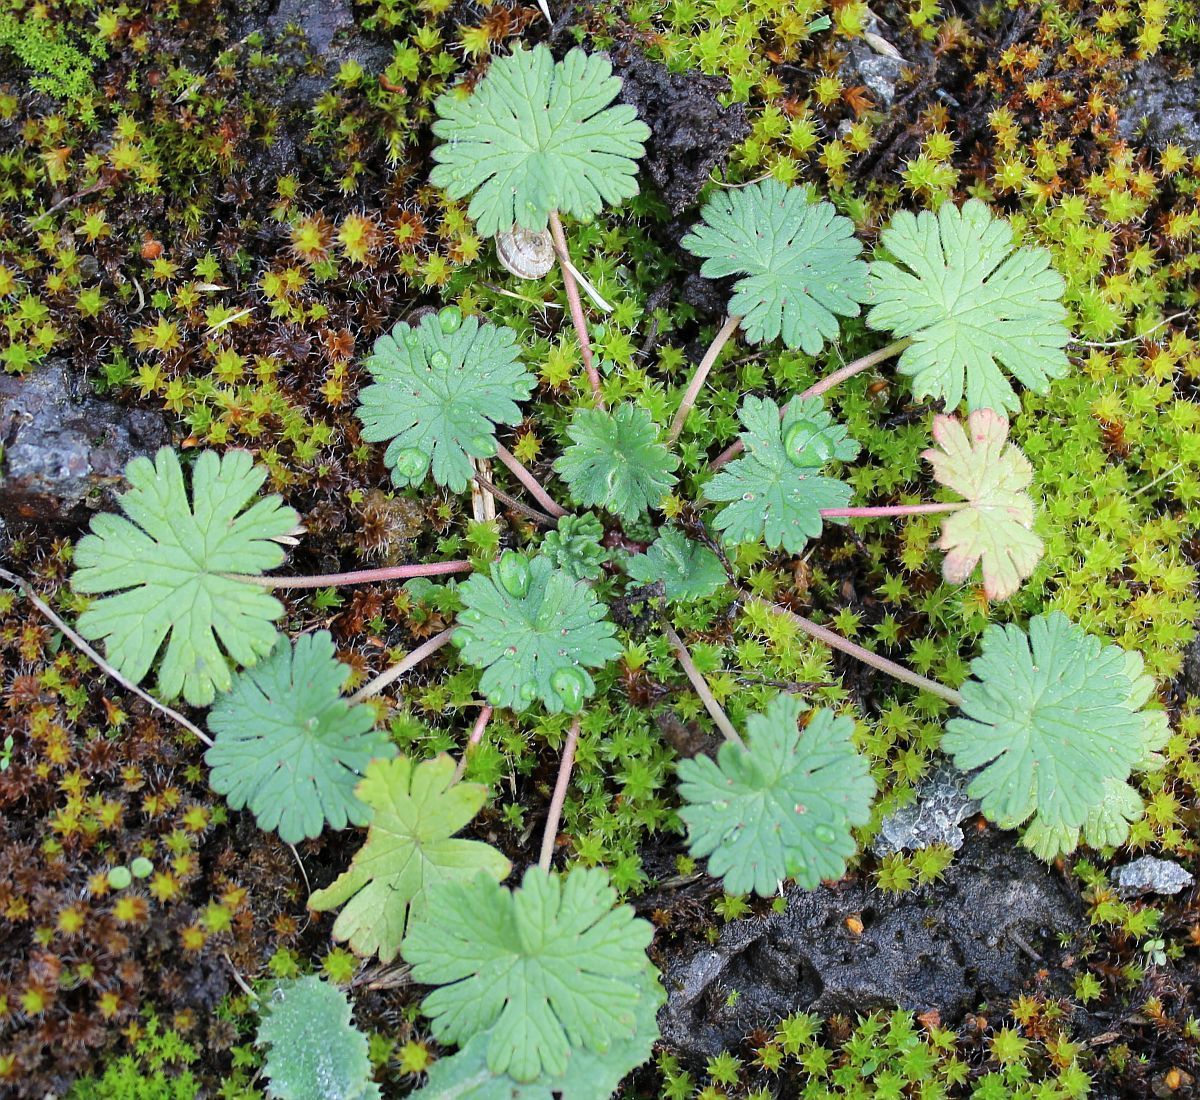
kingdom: Plantae
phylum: Tracheophyta
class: Magnoliopsida
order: Geraniales
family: Geraniaceae
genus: Geranium
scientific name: Geranium molle
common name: Dove's-foot crane's-bill
